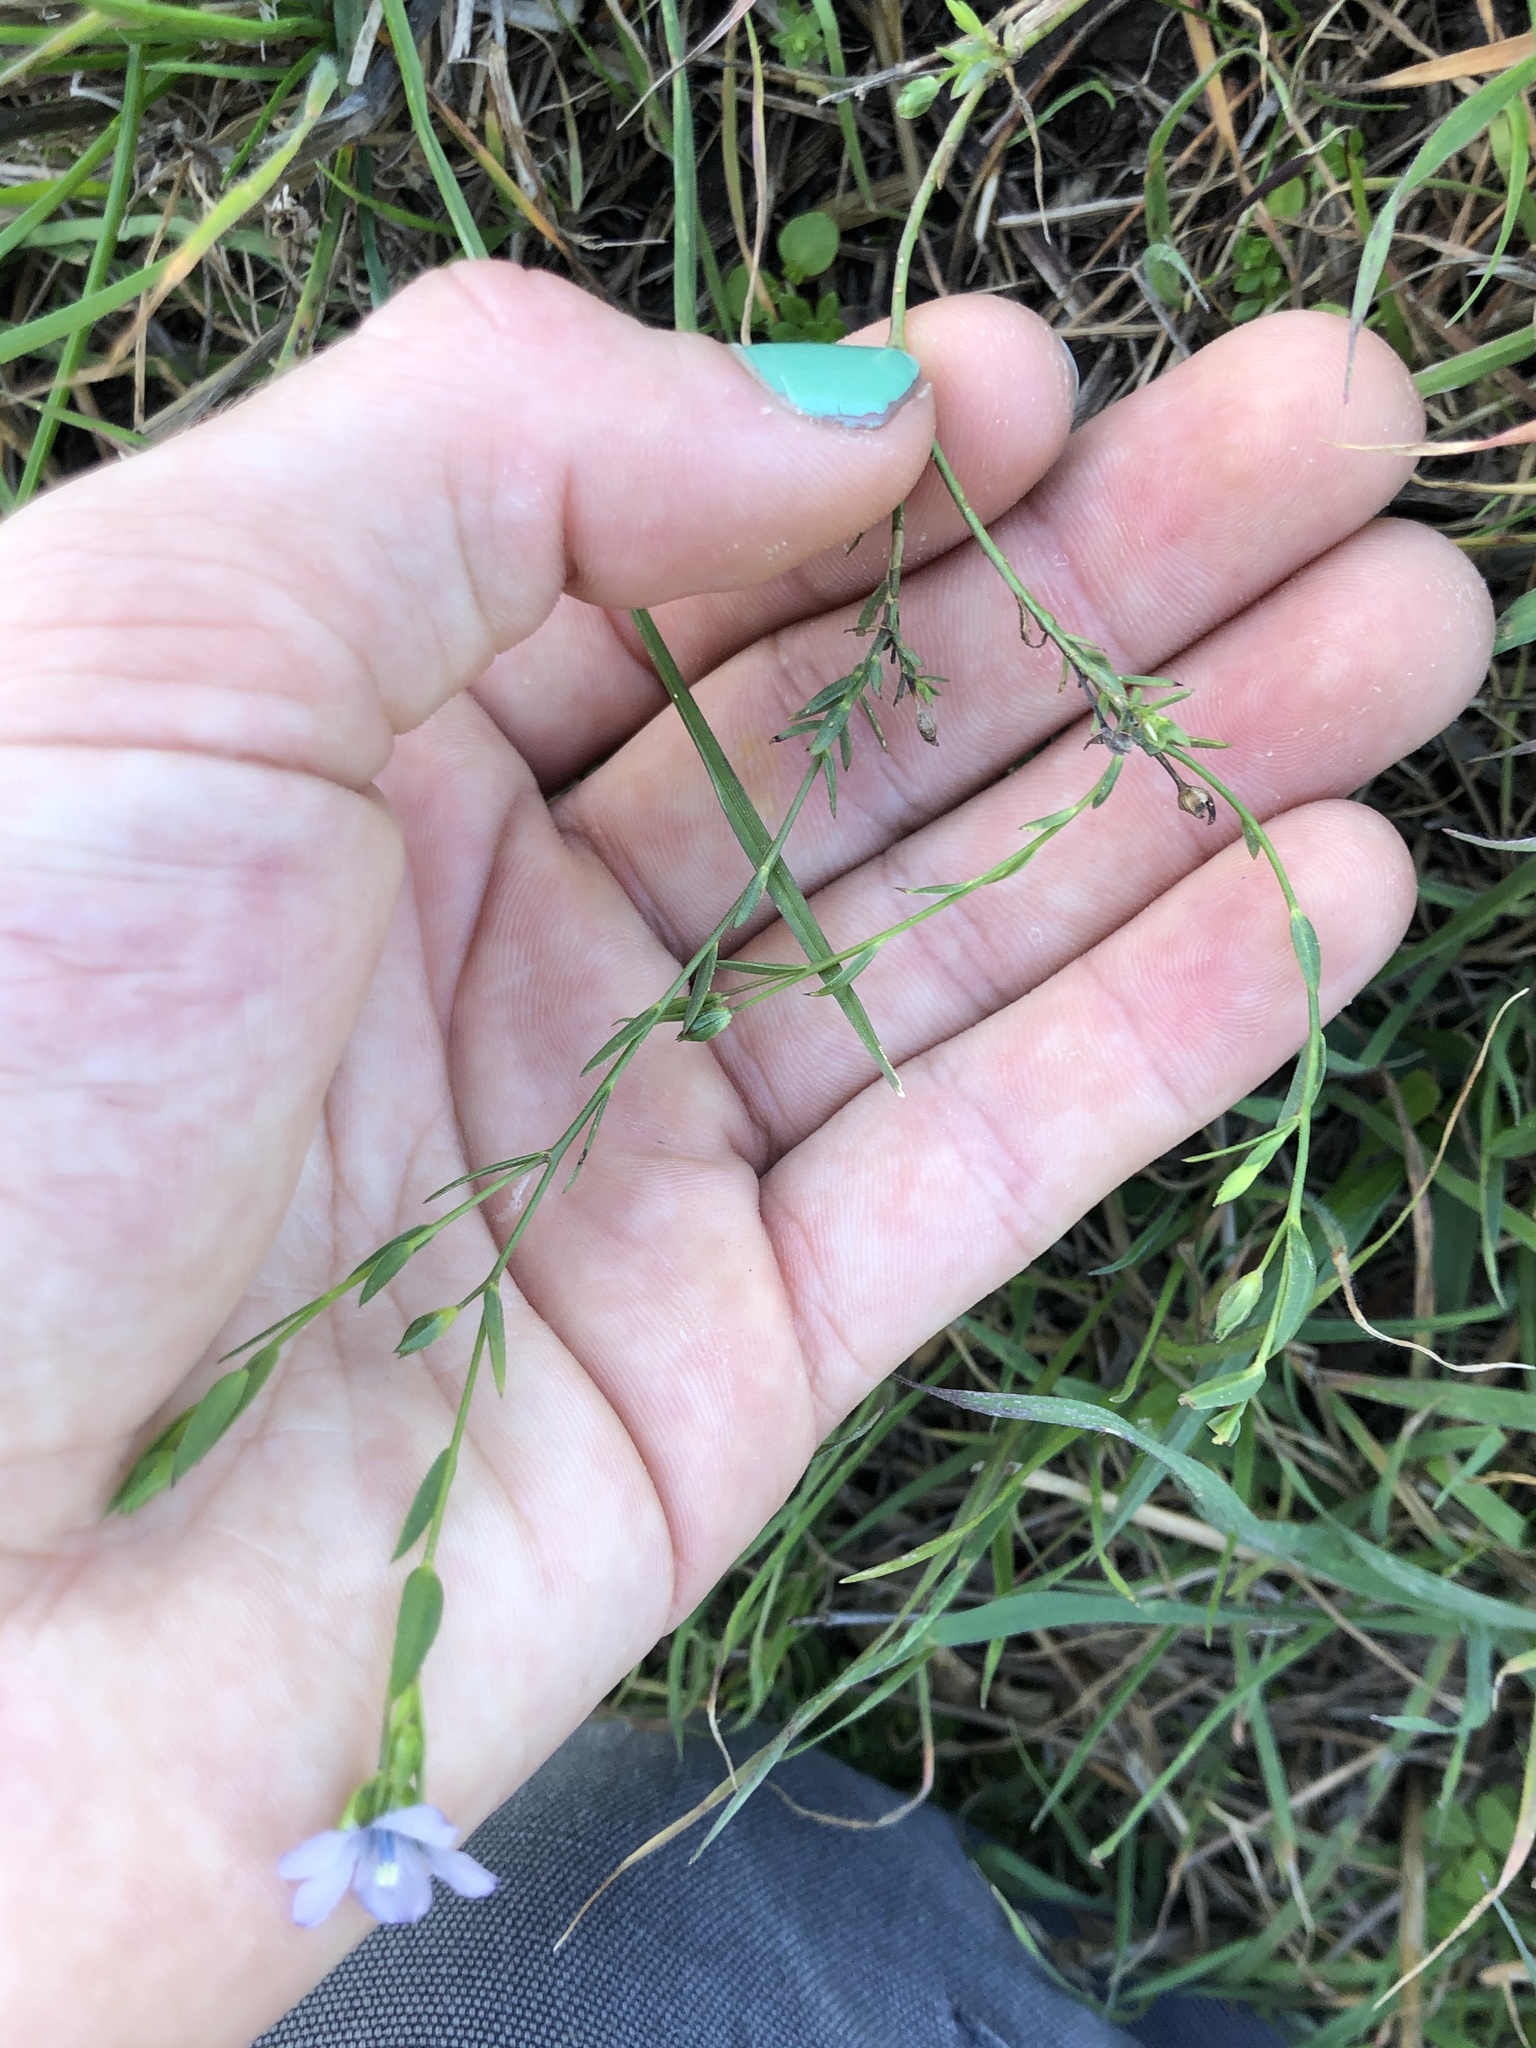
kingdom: Plantae
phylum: Tracheophyta
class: Magnoliopsida
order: Malpighiales
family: Linaceae
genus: Linum
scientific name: Linum bienne
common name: Pale flax
